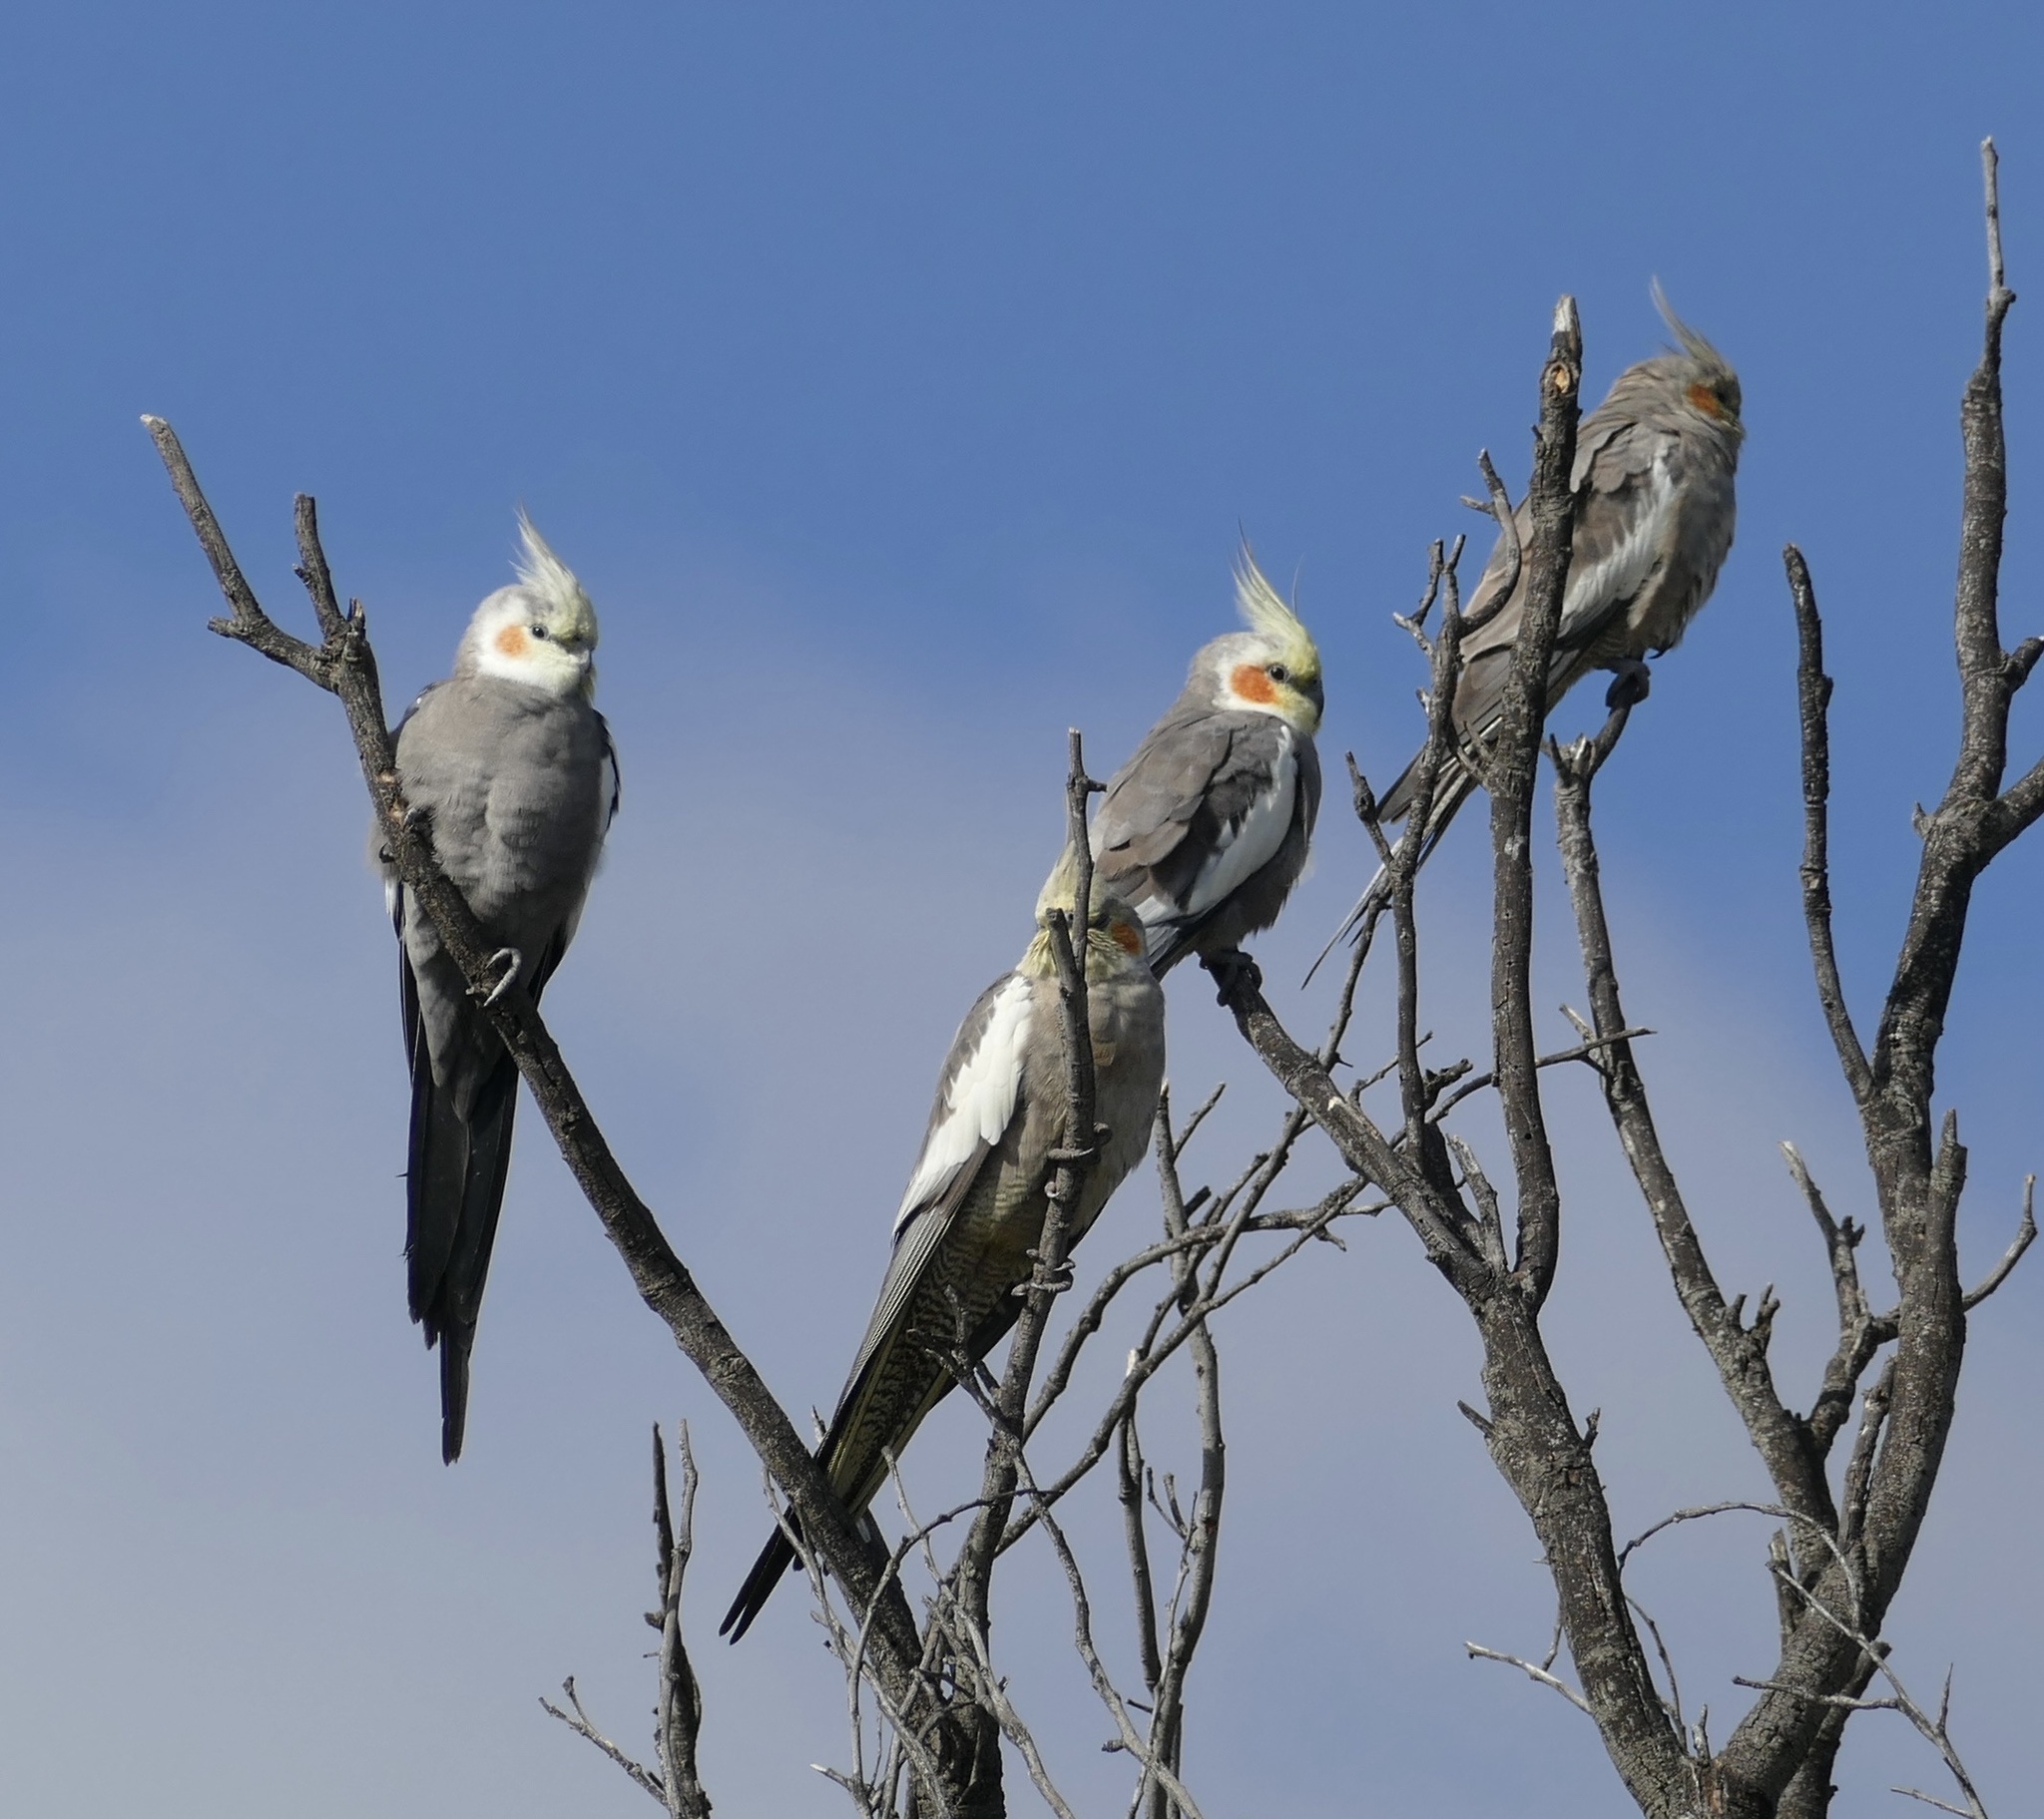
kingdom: Animalia
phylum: Chordata
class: Aves
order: Psittaciformes
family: Psittacidae
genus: Nymphicus
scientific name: Nymphicus hollandicus
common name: Cockatiel
